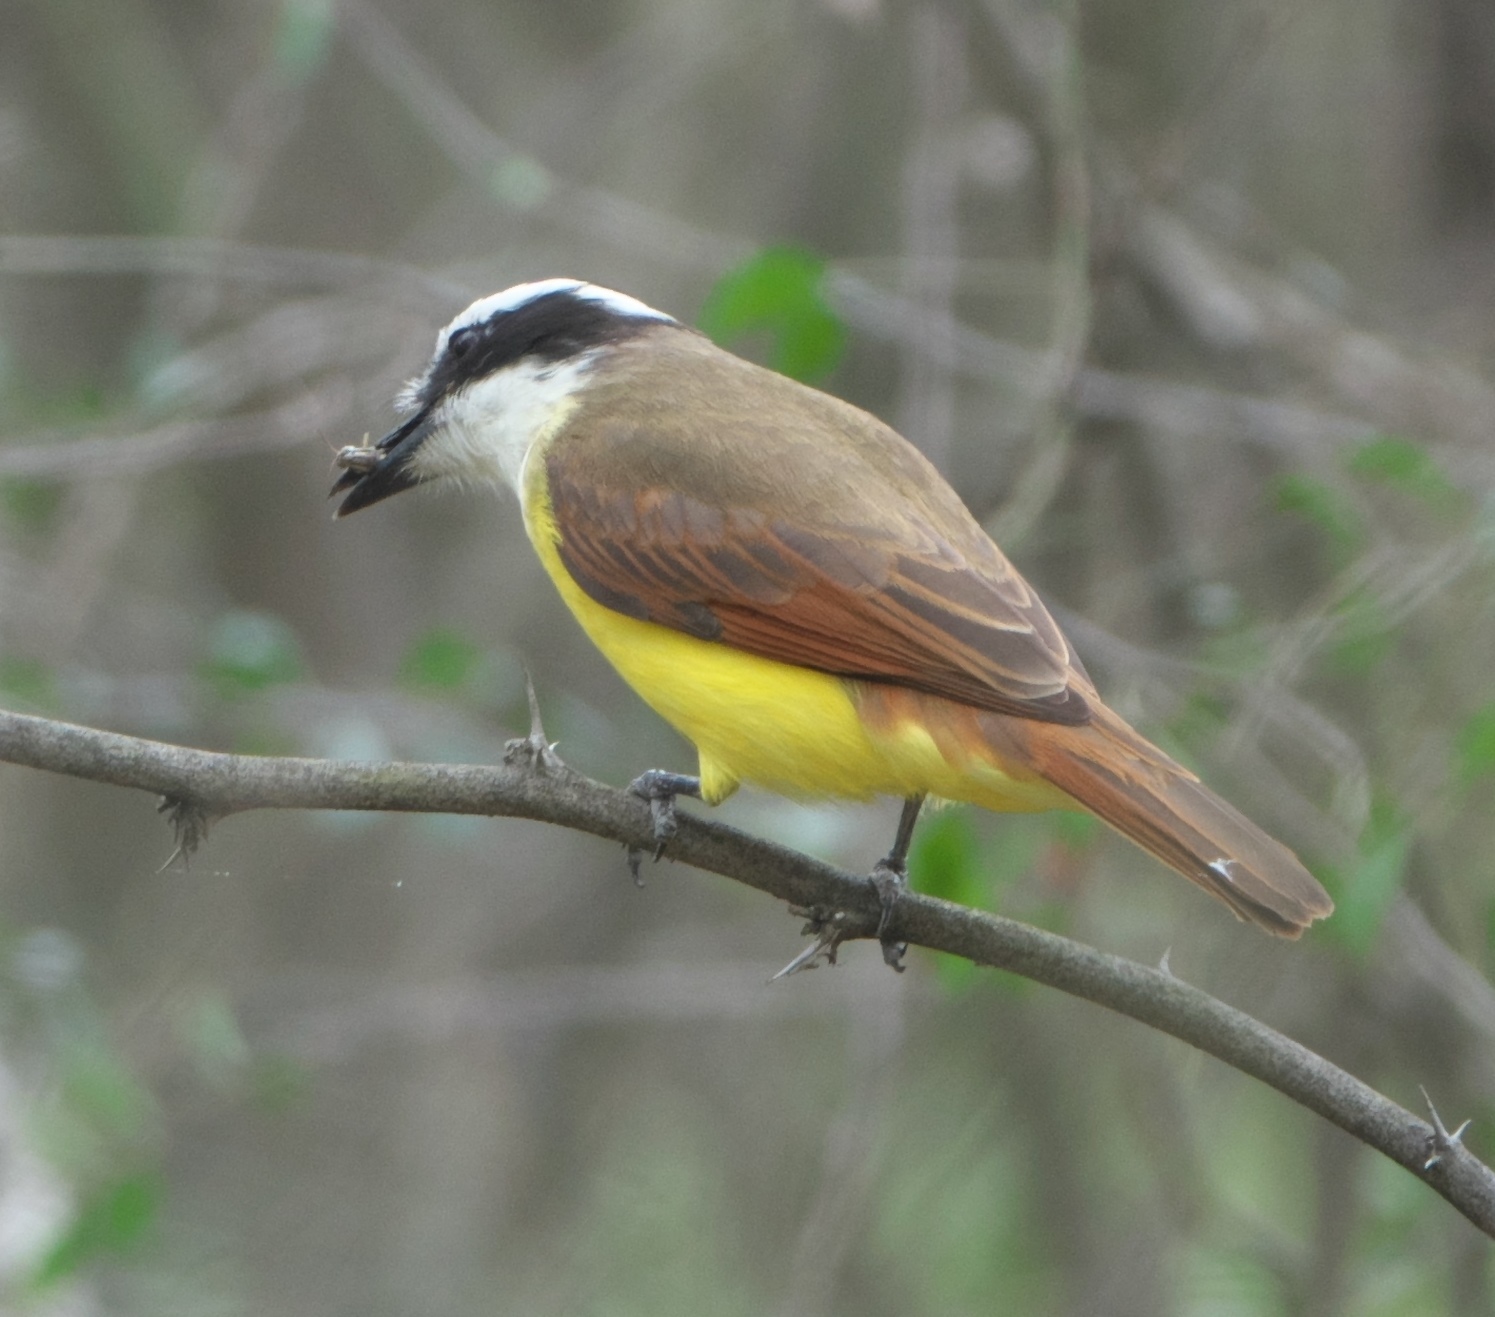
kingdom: Animalia
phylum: Chordata
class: Aves
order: Passeriformes
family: Tyrannidae
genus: Pitangus
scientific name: Pitangus sulphuratus
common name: Great kiskadee
